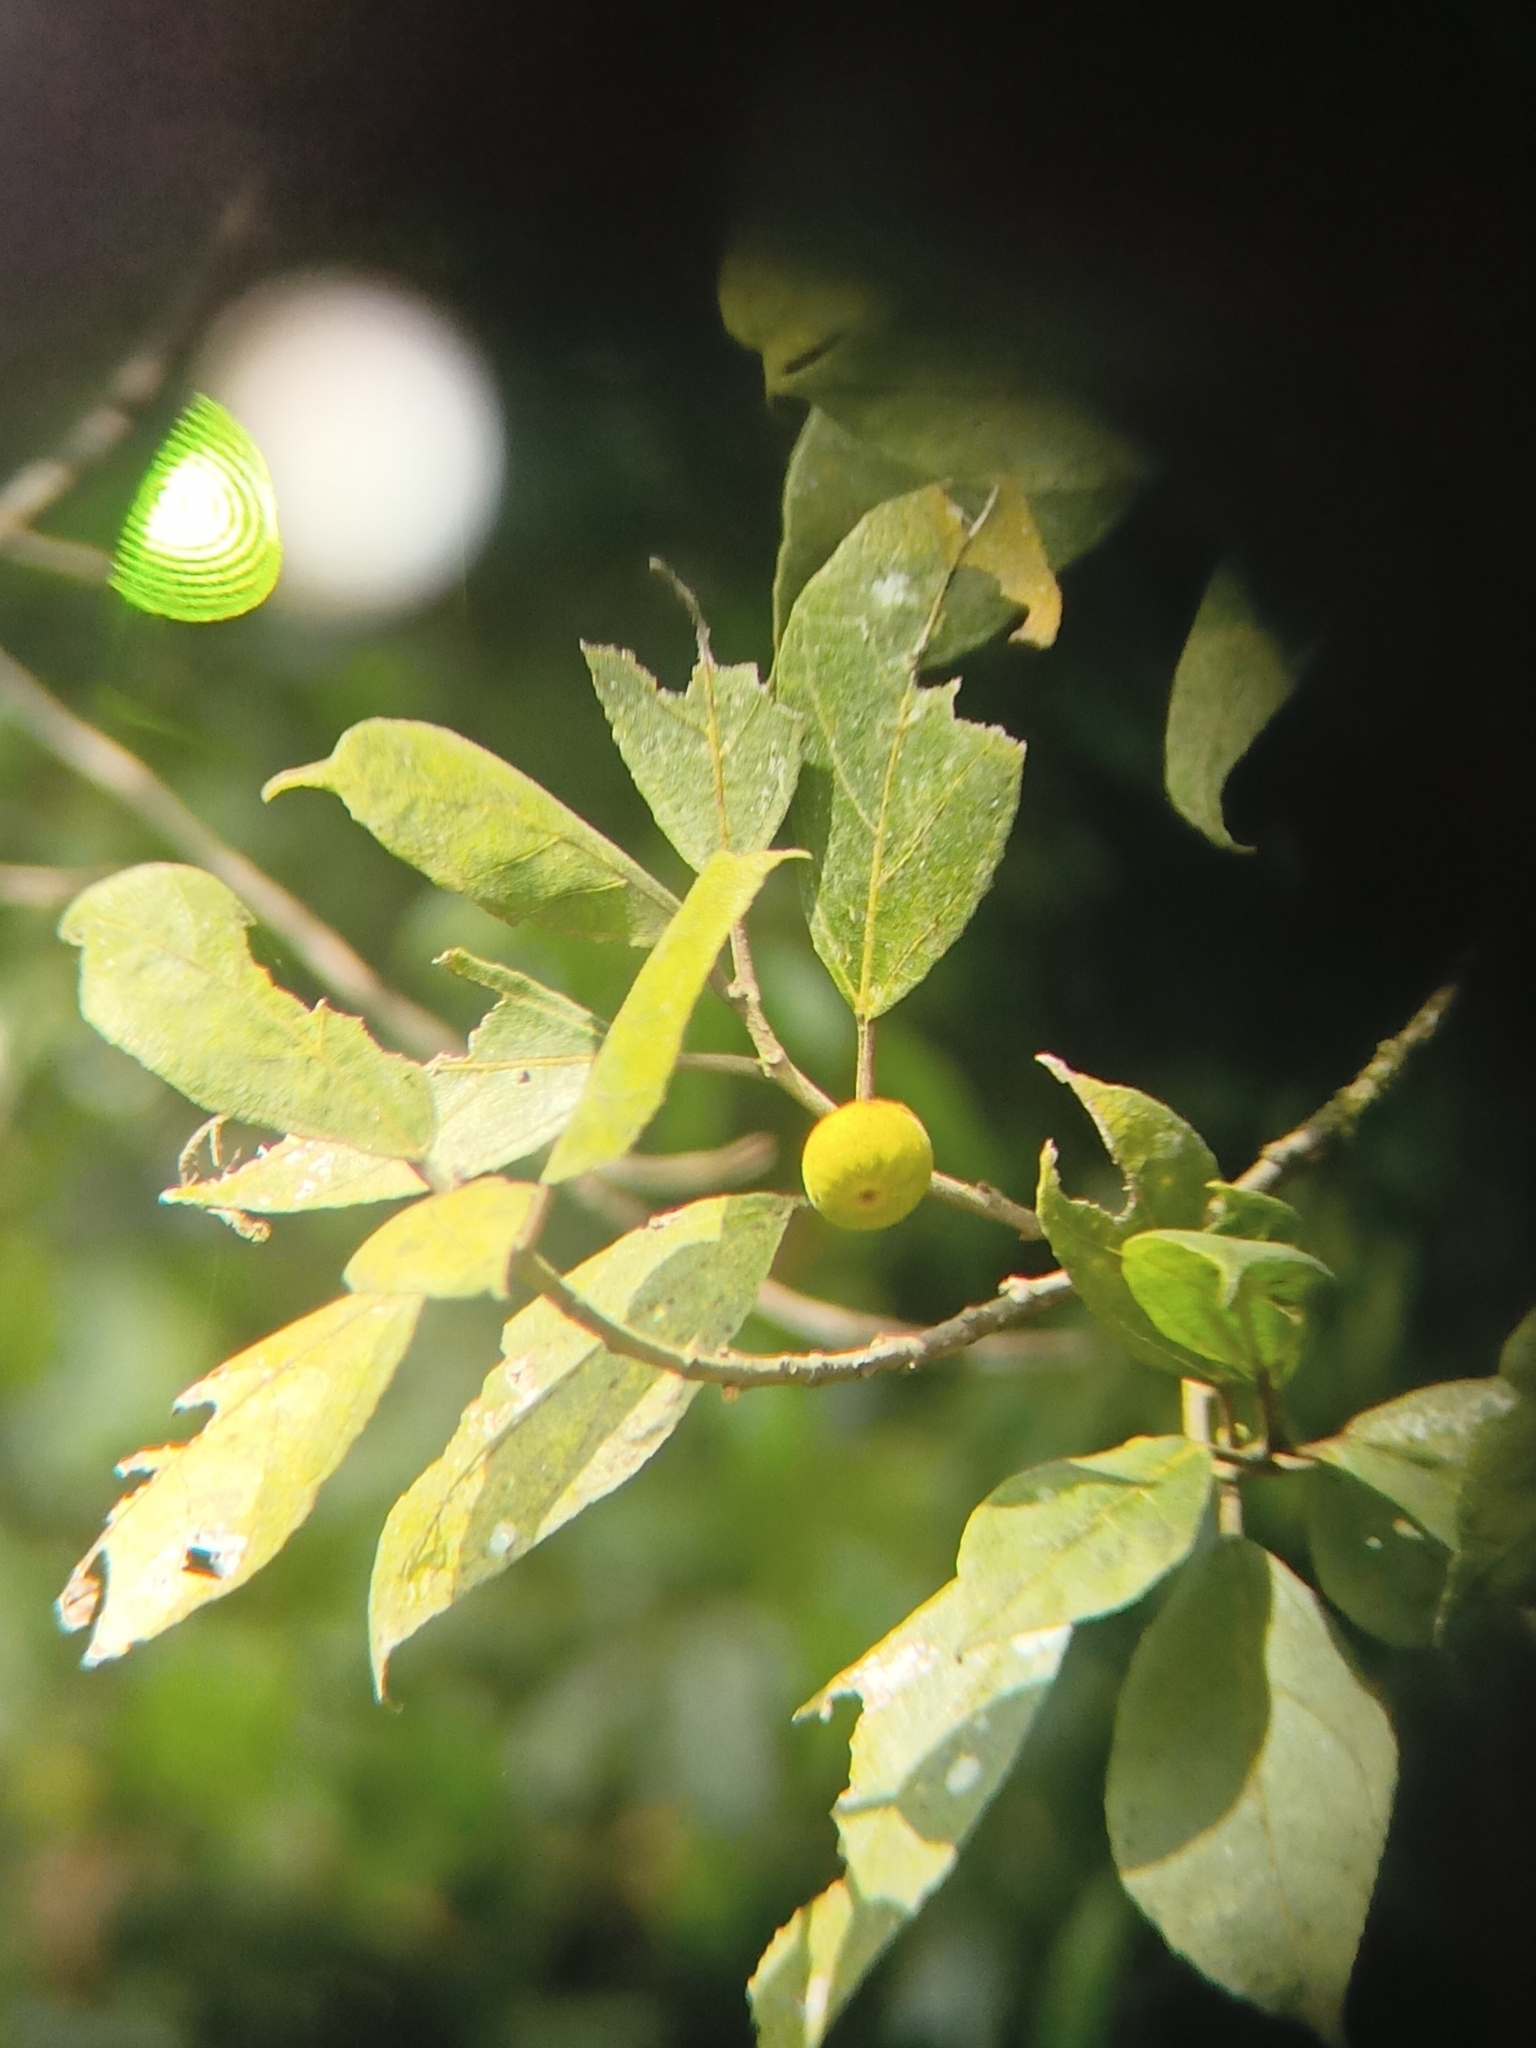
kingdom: Plantae
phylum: Tracheophyta
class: Magnoliopsida
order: Rosales
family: Moraceae
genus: Ficus
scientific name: Ficus exasperata
